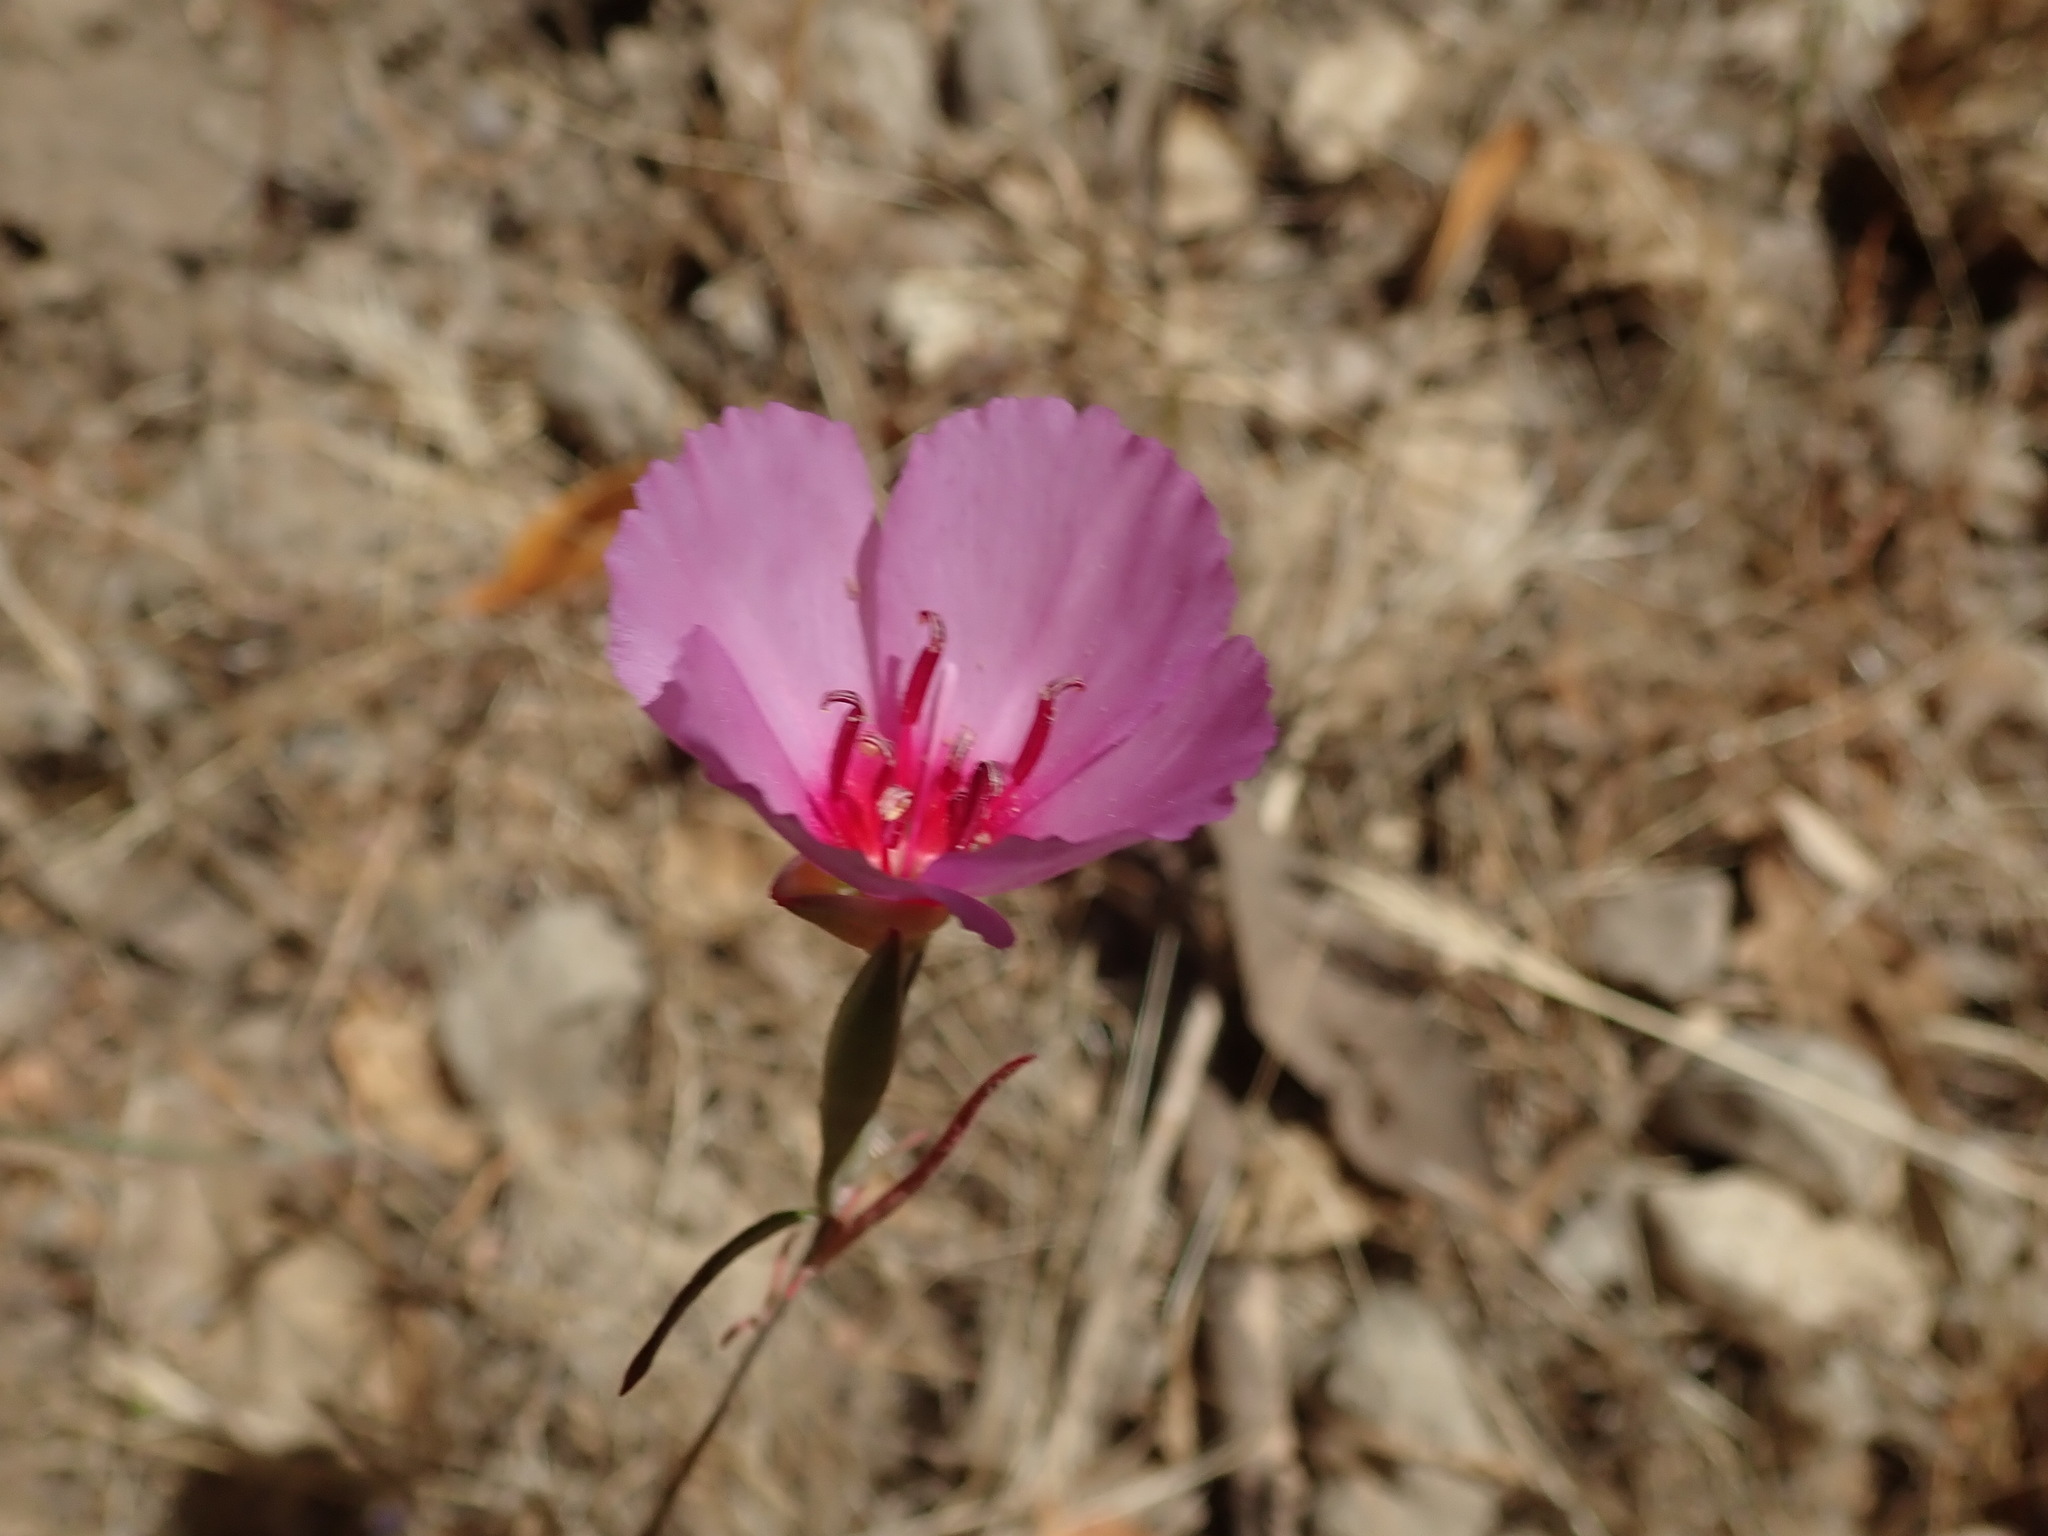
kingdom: Plantae
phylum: Tracheophyta
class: Magnoliopsida
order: Myrtales
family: Onagraceae
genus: Clarkia
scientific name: Clarkia rubicunda
